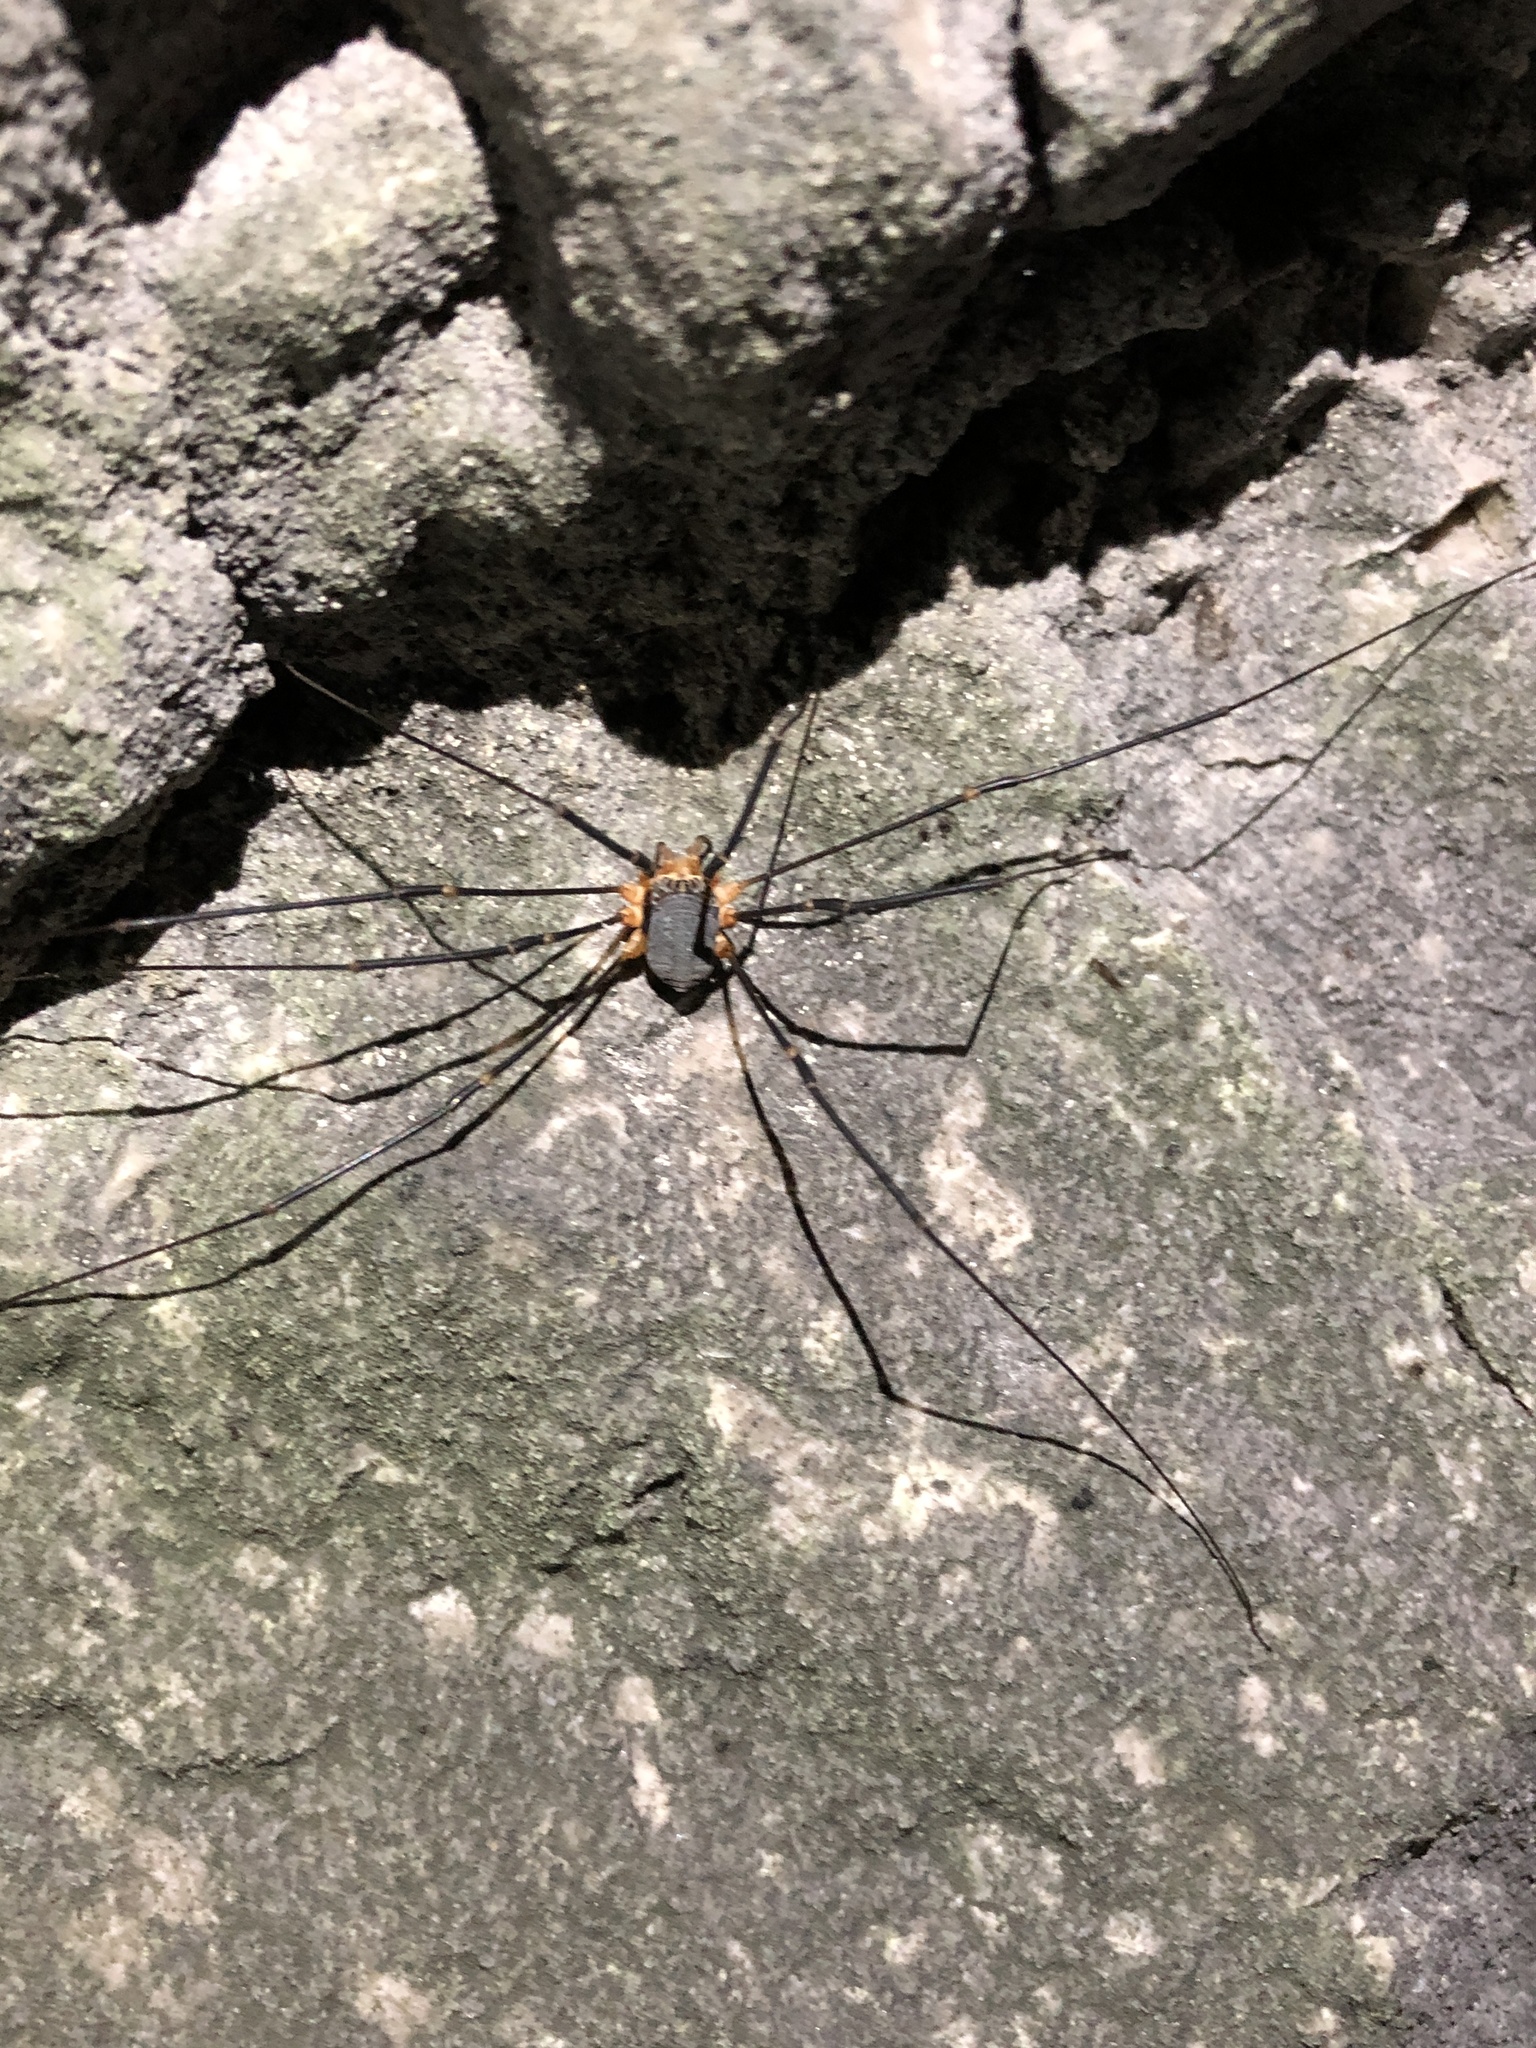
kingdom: Animalia
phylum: Arthropoda
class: Arachnida
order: Opiliones
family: Sclerosomatidae
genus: Gyas
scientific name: Gyas annulatus
